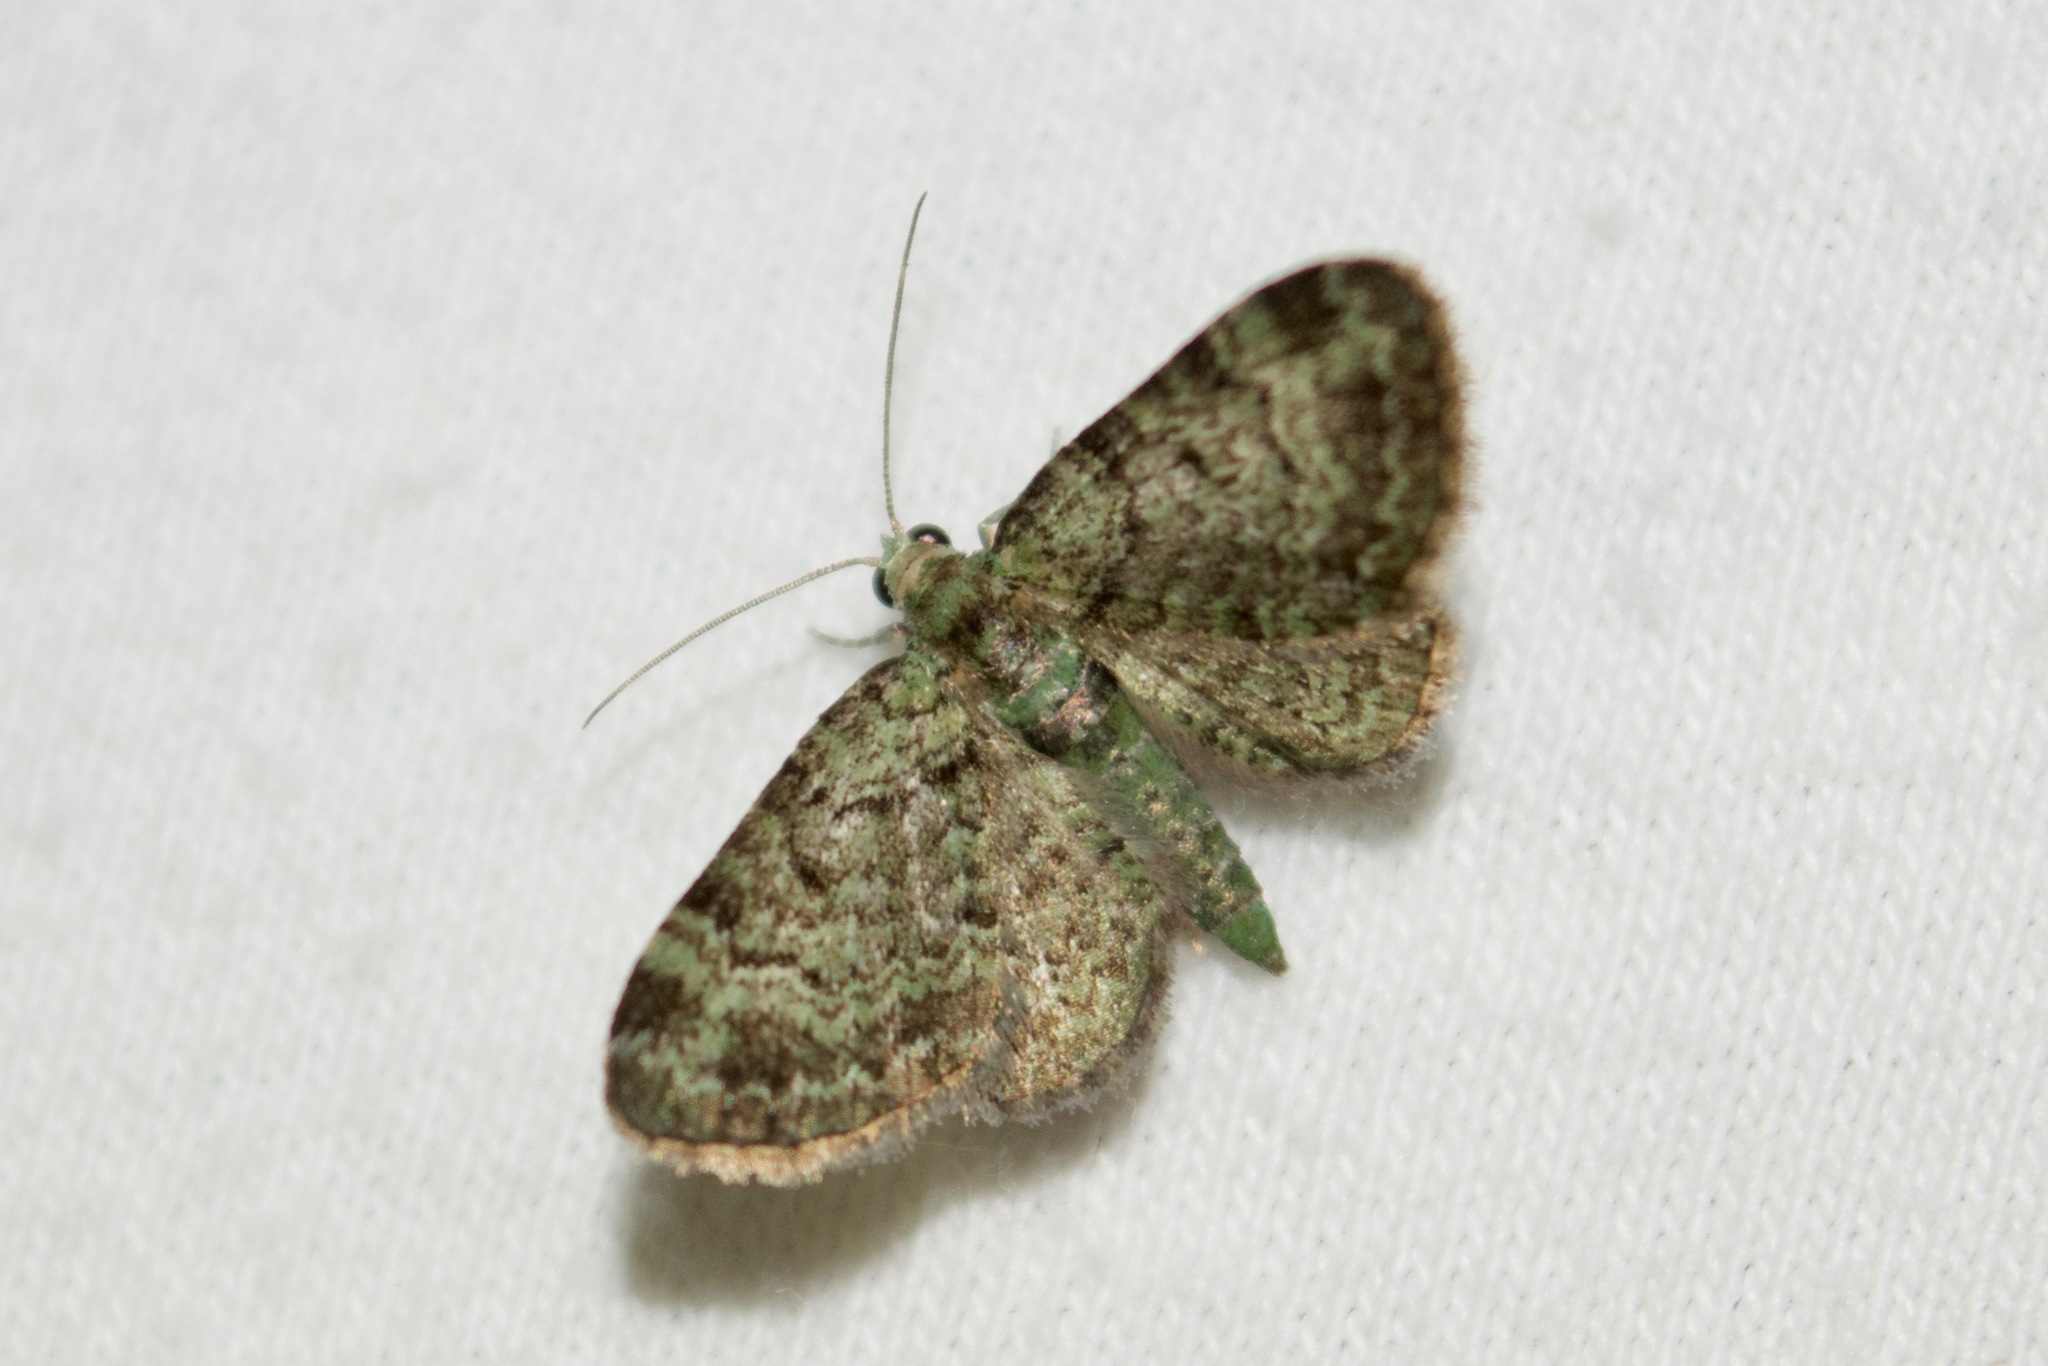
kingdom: Animalia
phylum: Arthropoda
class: Insecta
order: Lepidoptera
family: Geometridae
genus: Pasiphila
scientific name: Pasiphila rectangulata
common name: Green pug
